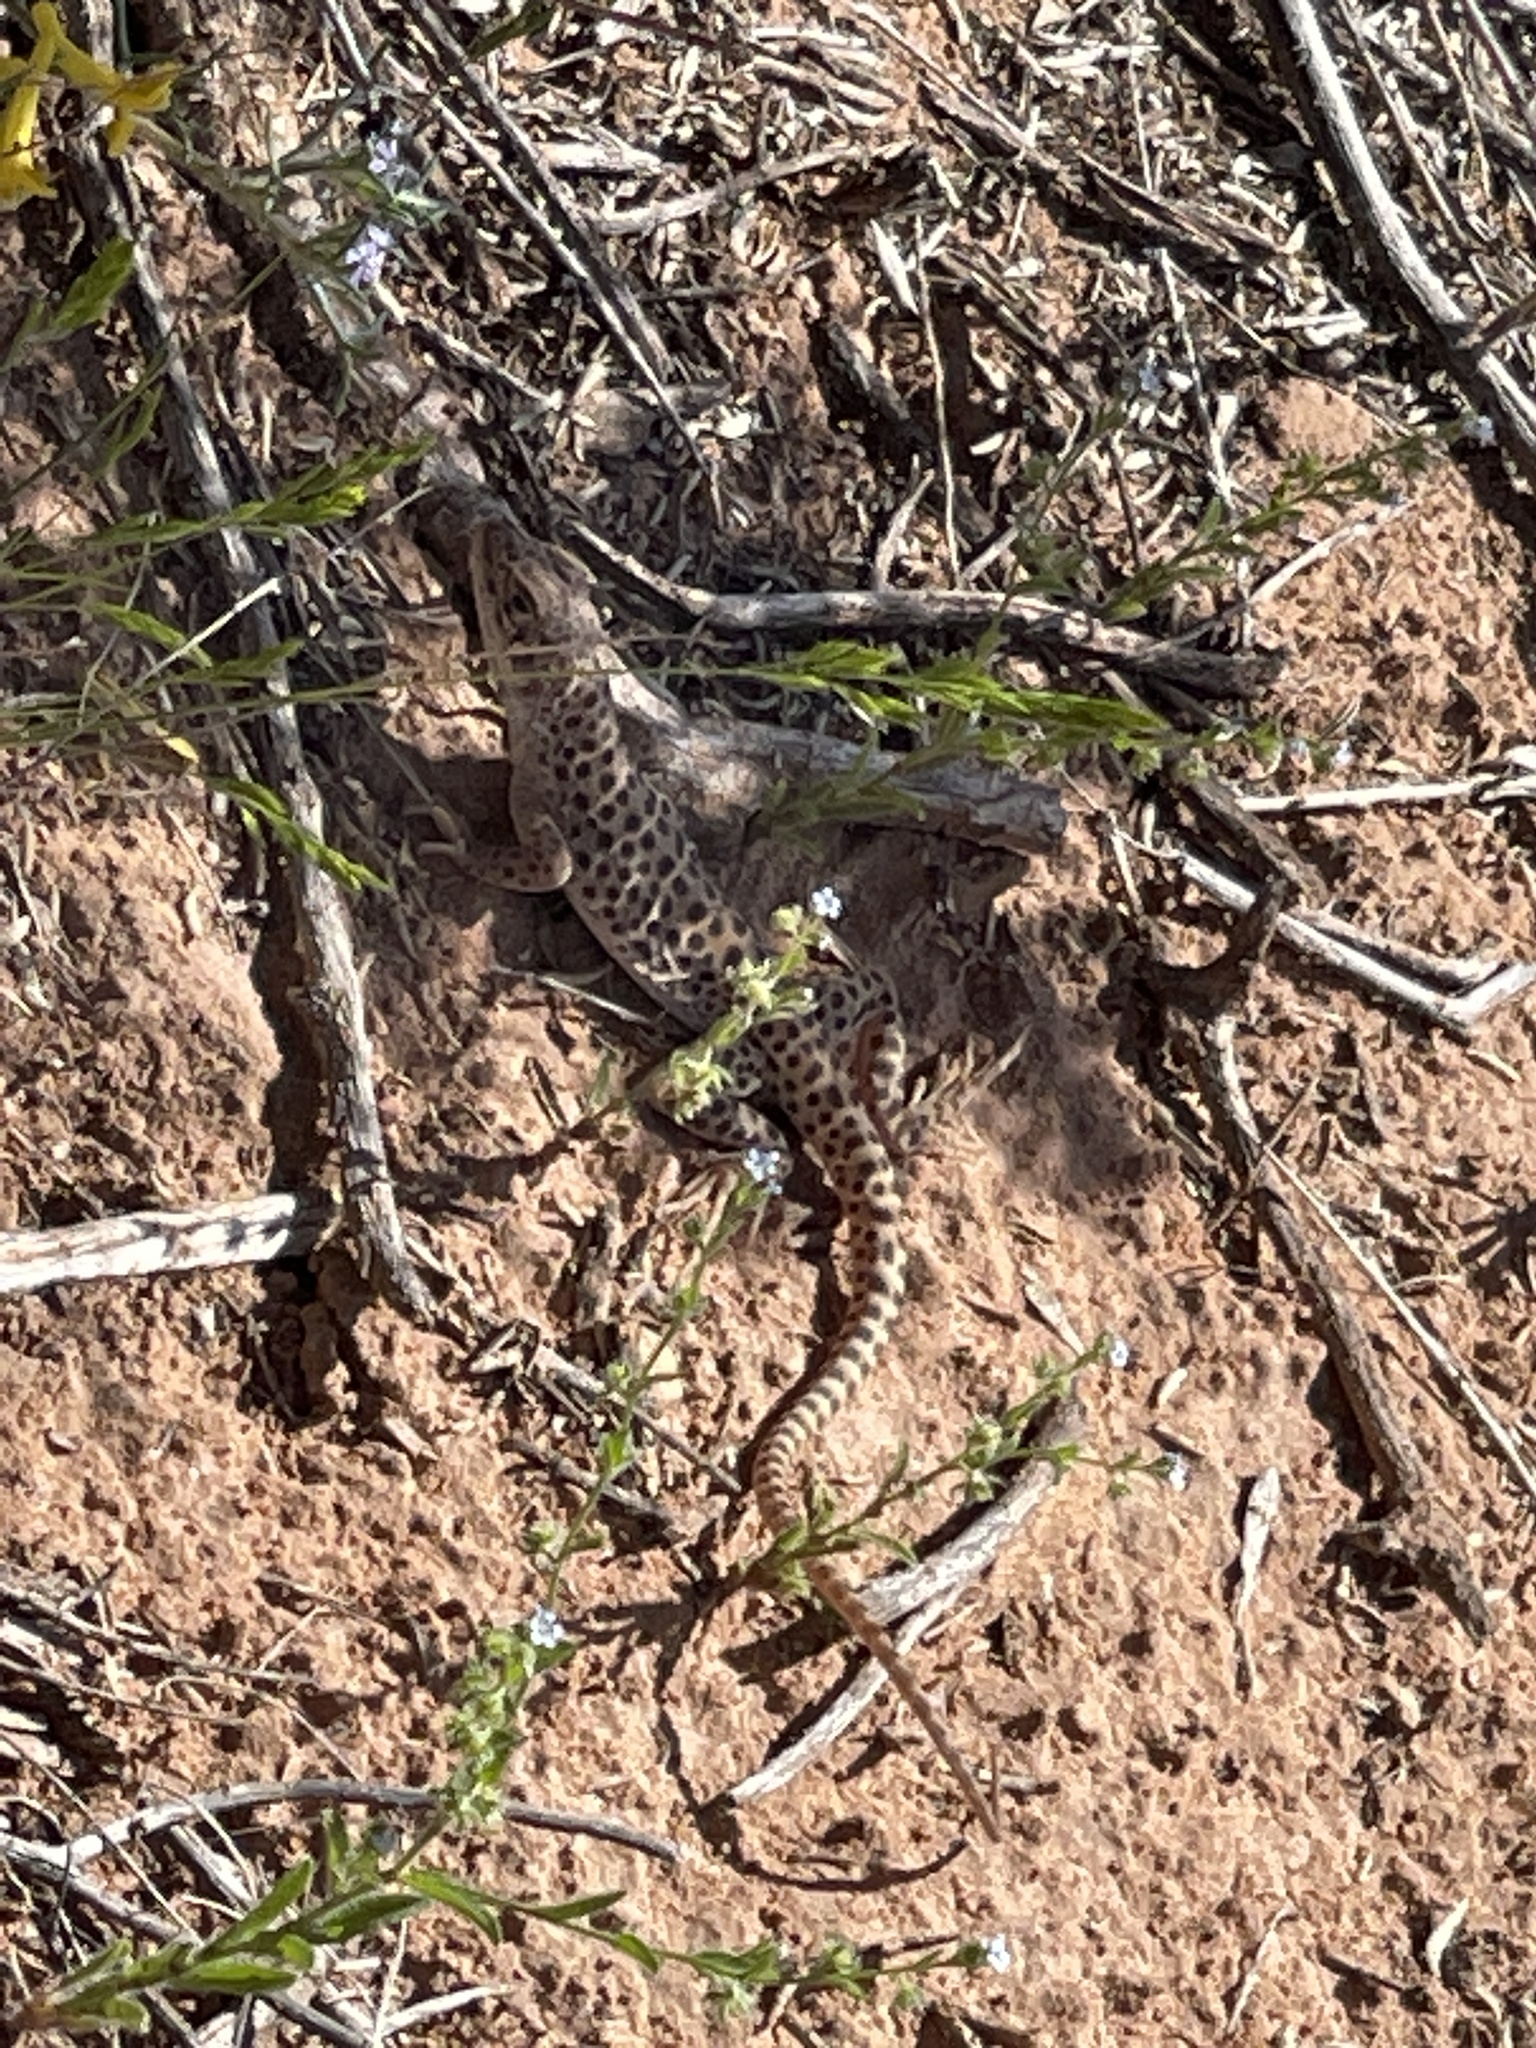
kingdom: Animalia
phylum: Chordata
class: Squamata
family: Crotaphytidae
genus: Gambelia
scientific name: Gambelia wislizenii
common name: Longnose leopard lizard
